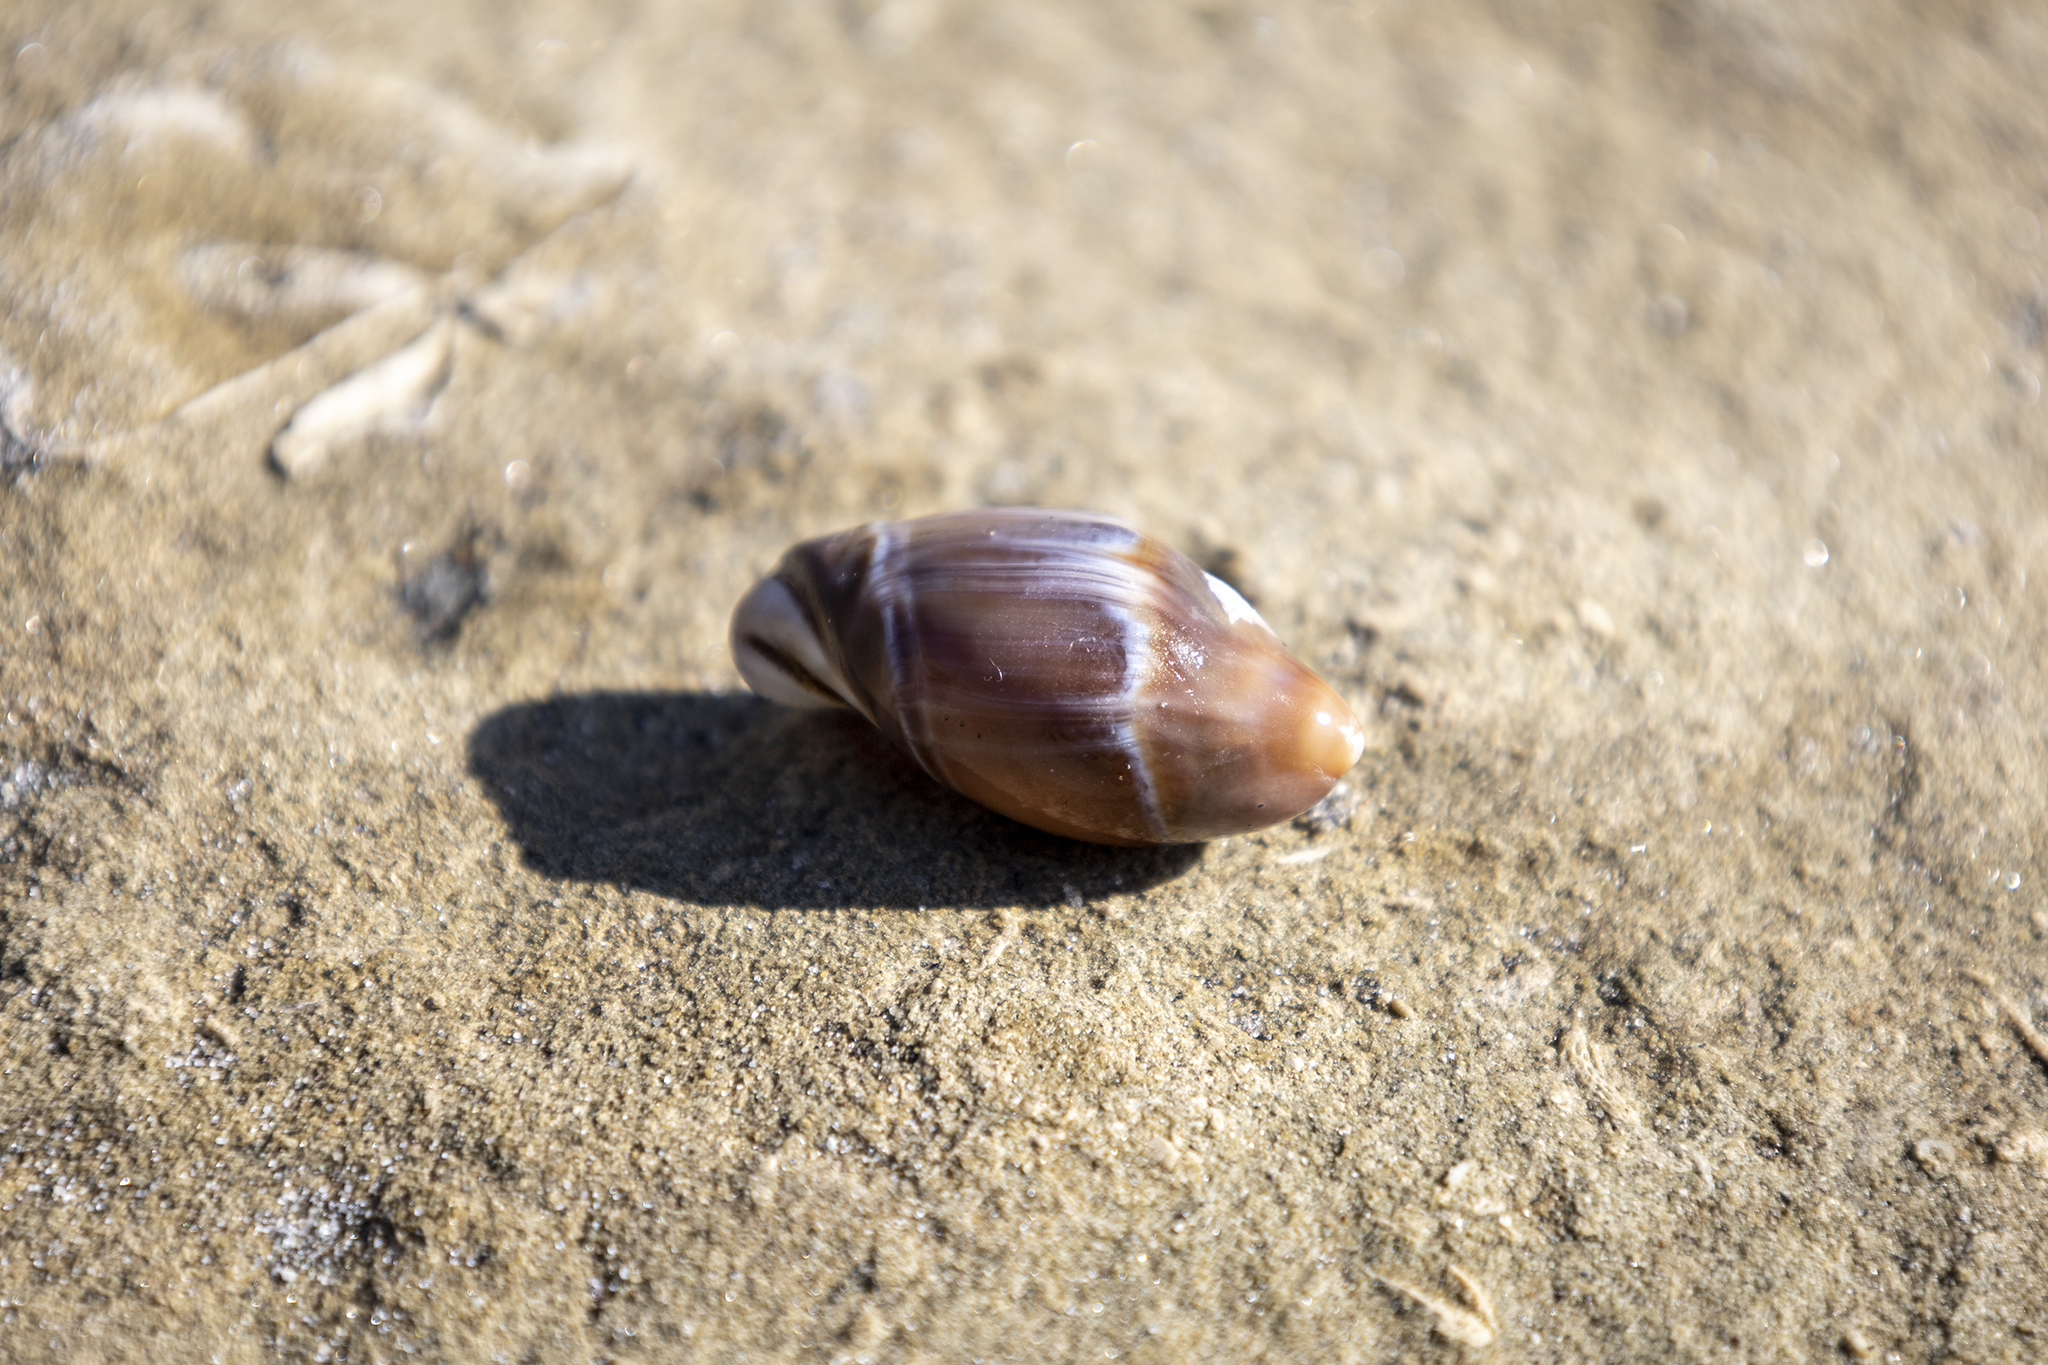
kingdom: Animalia
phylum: Mollusca
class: Gastropoda
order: Neogastropoda
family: Ancillariidae
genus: Amalda
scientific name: Amalda australis
